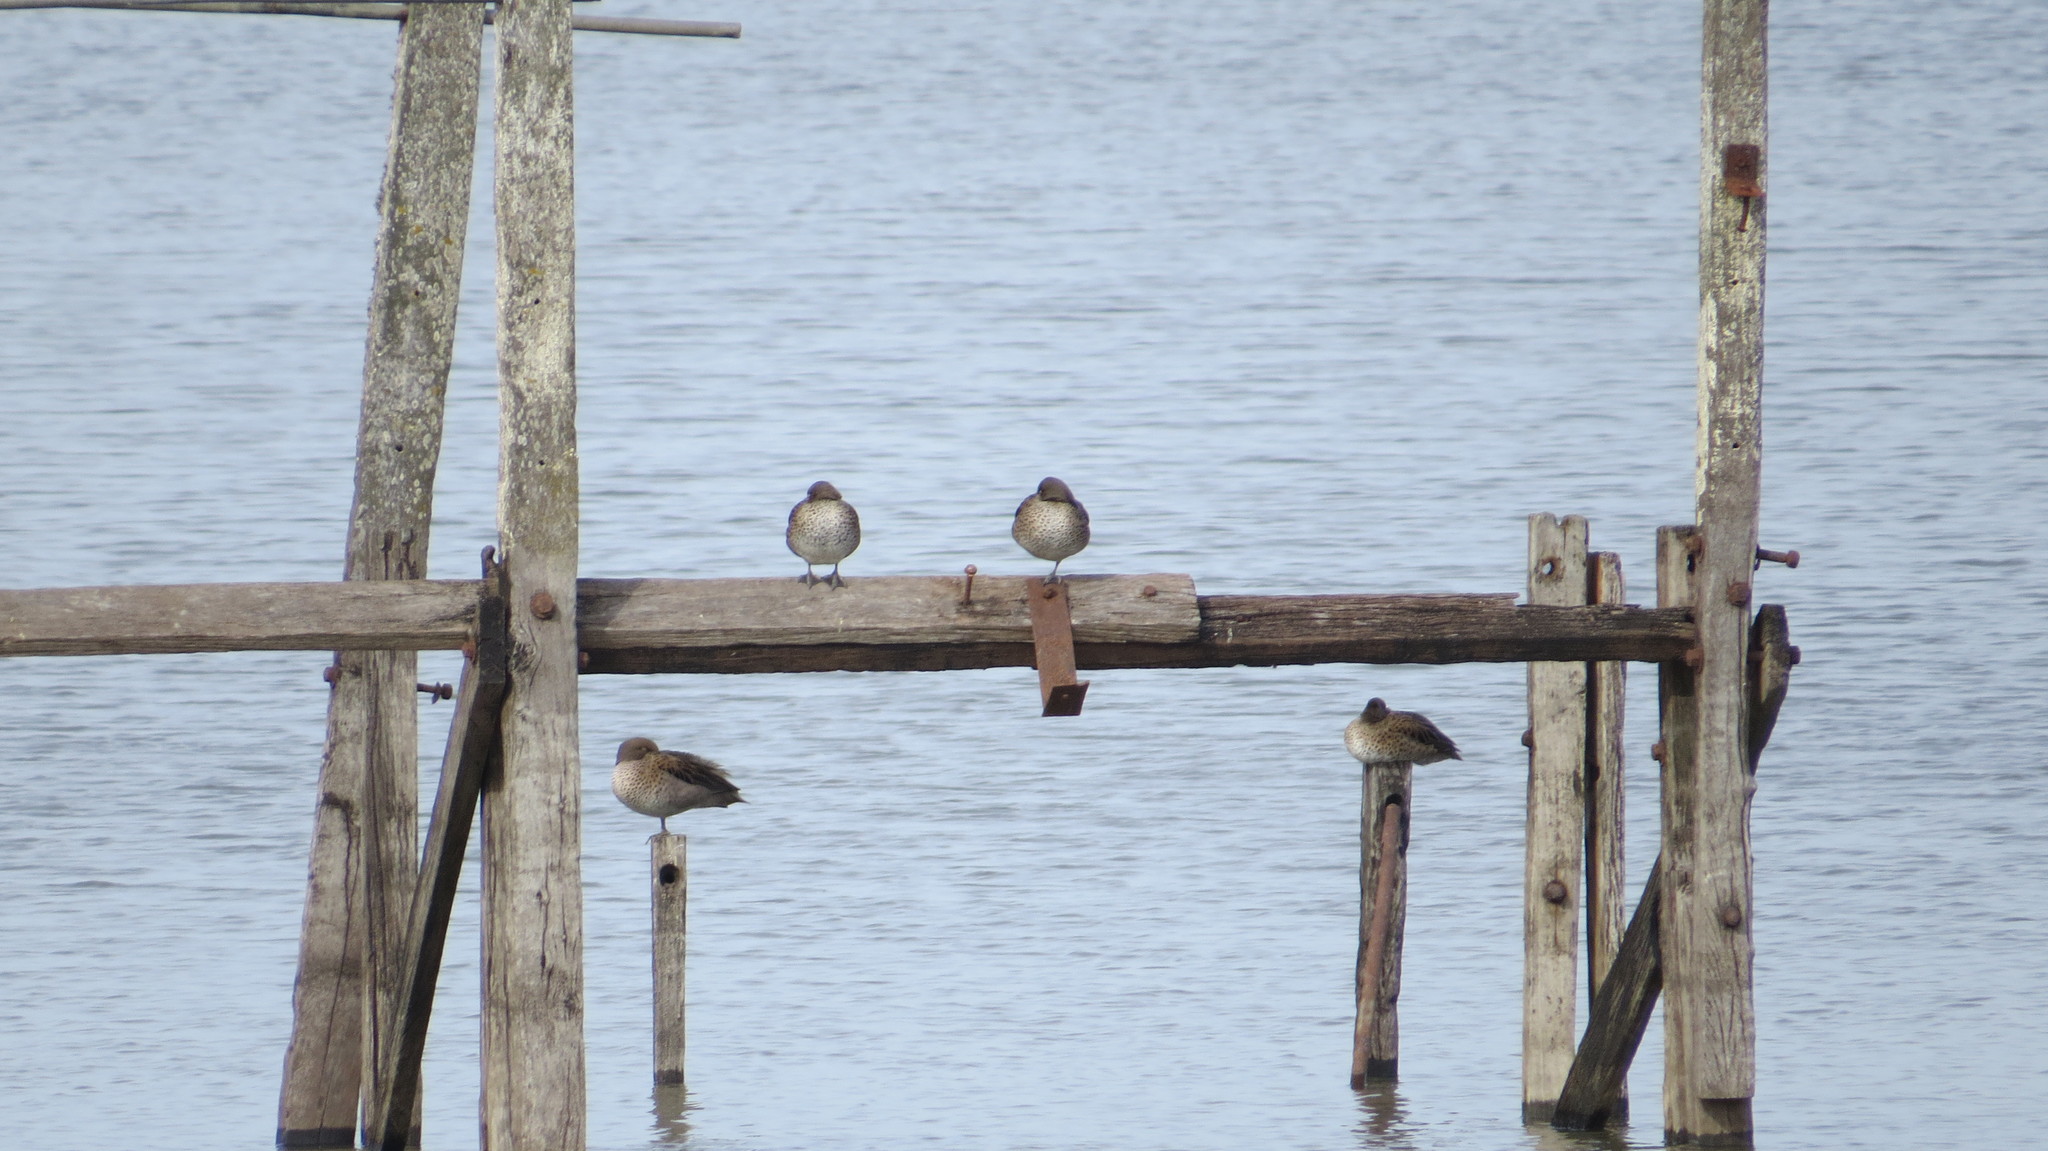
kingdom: Animalia
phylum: Chordata
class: Aves
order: Anseriformes
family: Anatidae
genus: Anas
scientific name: Anas flavirostris
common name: Yellow-billed teal
